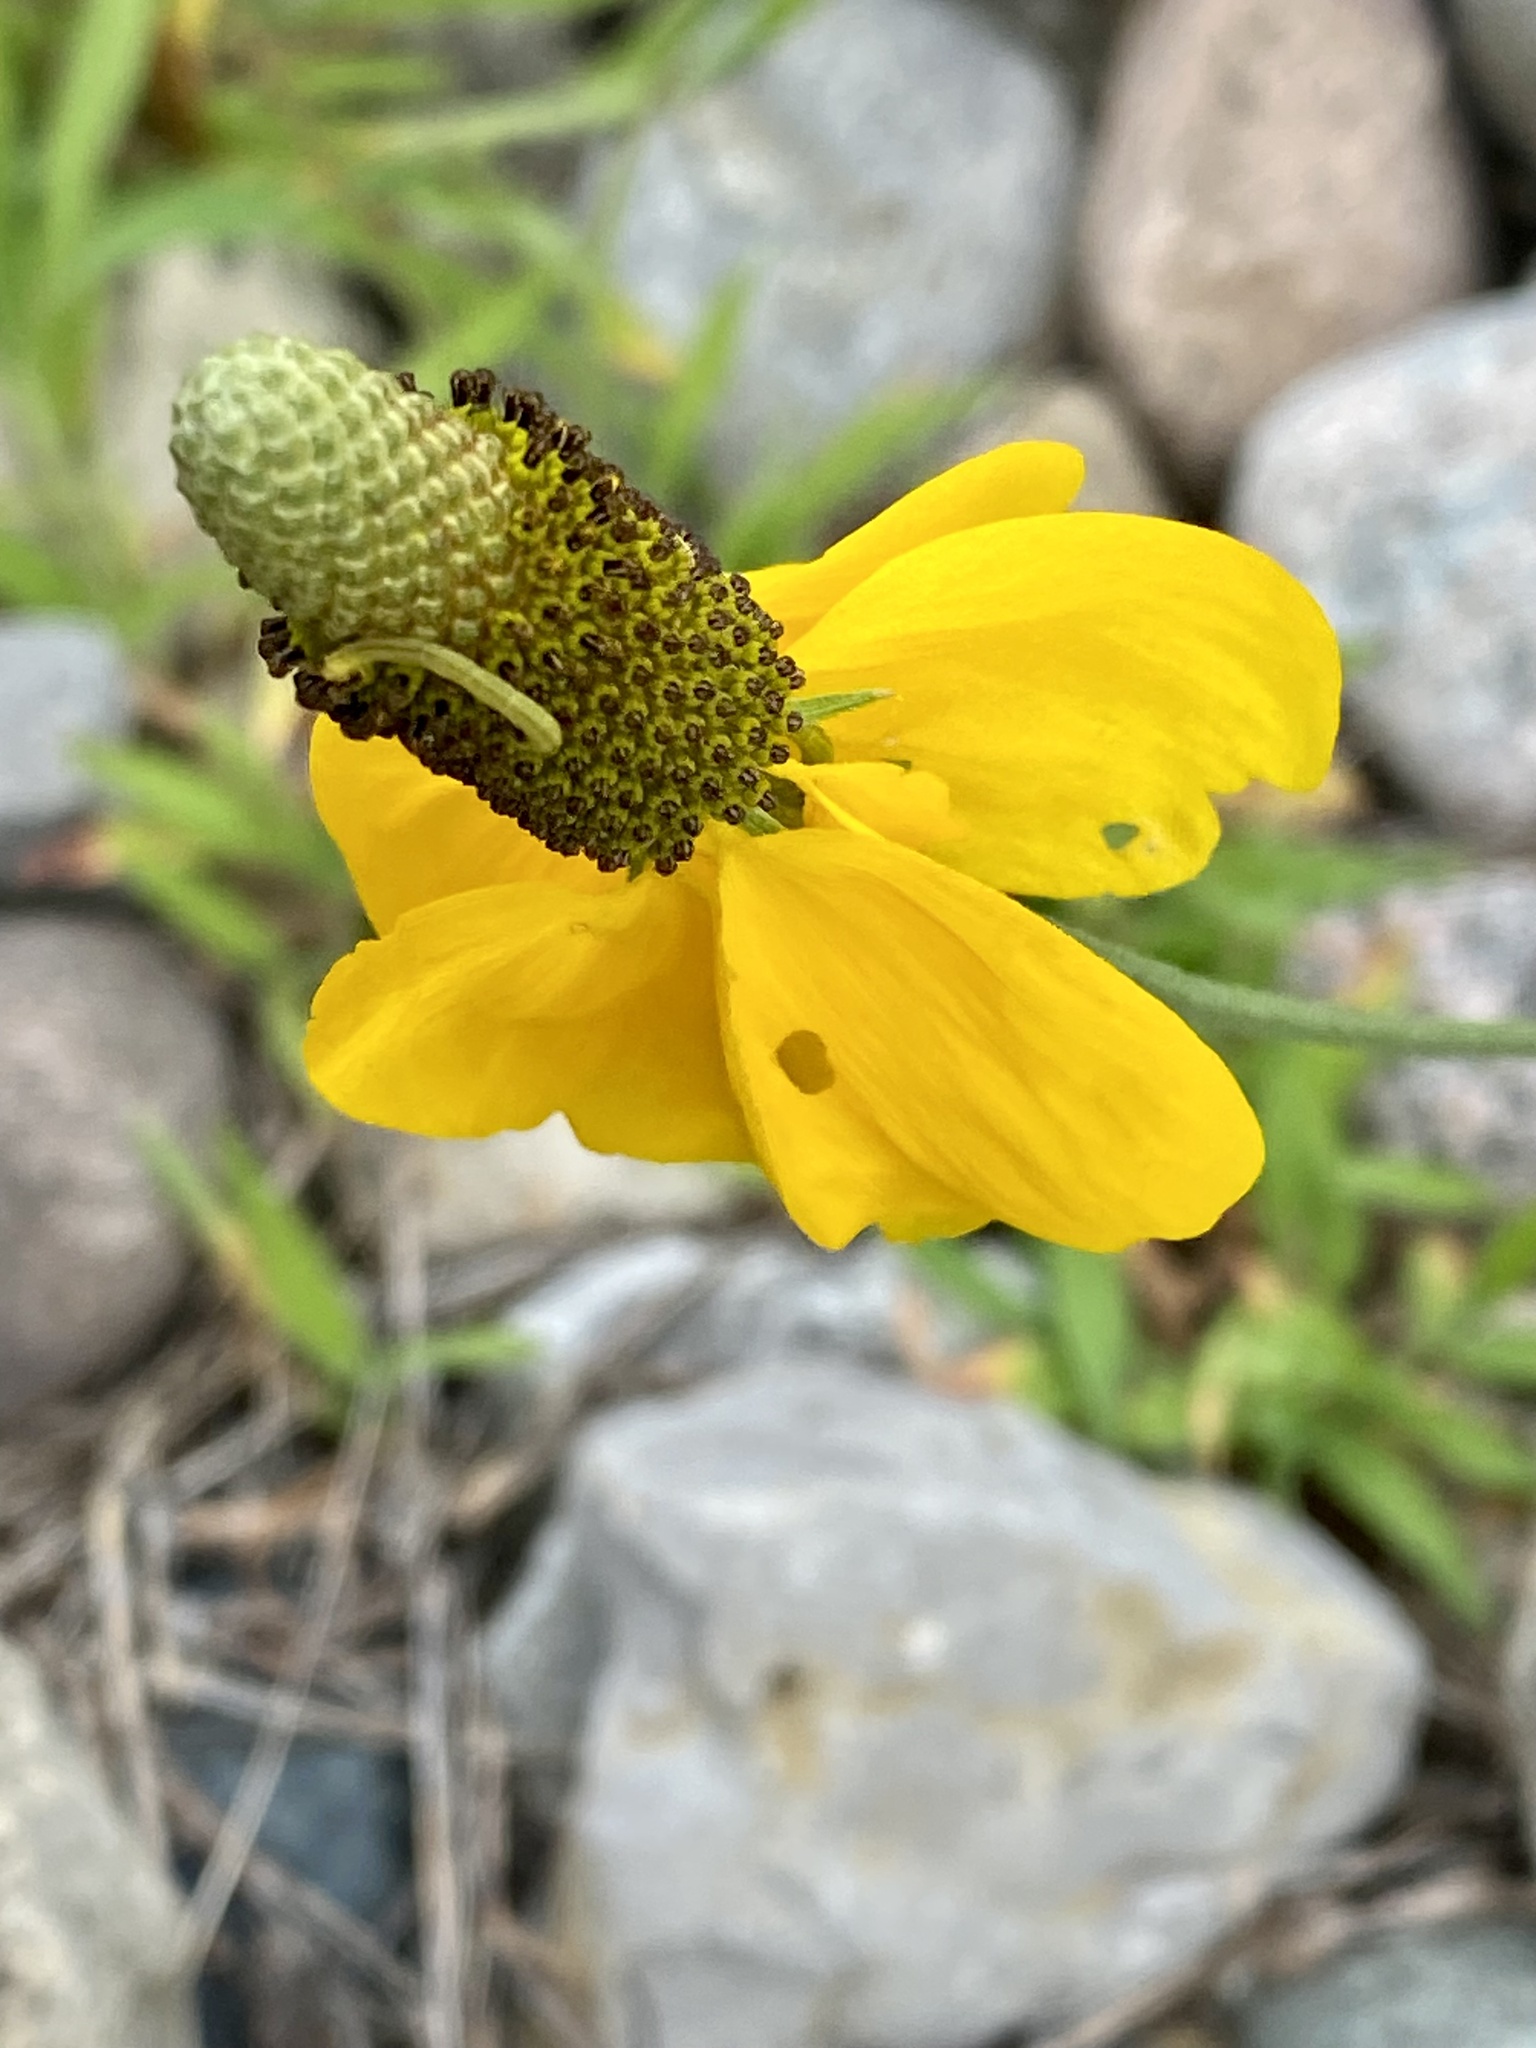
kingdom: Plantae
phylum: Tracheophyta
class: Magnoliopsida
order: Asterales
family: Asteraceae
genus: Ratibida
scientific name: Ratibida columnifera
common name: Prairie coneflower
